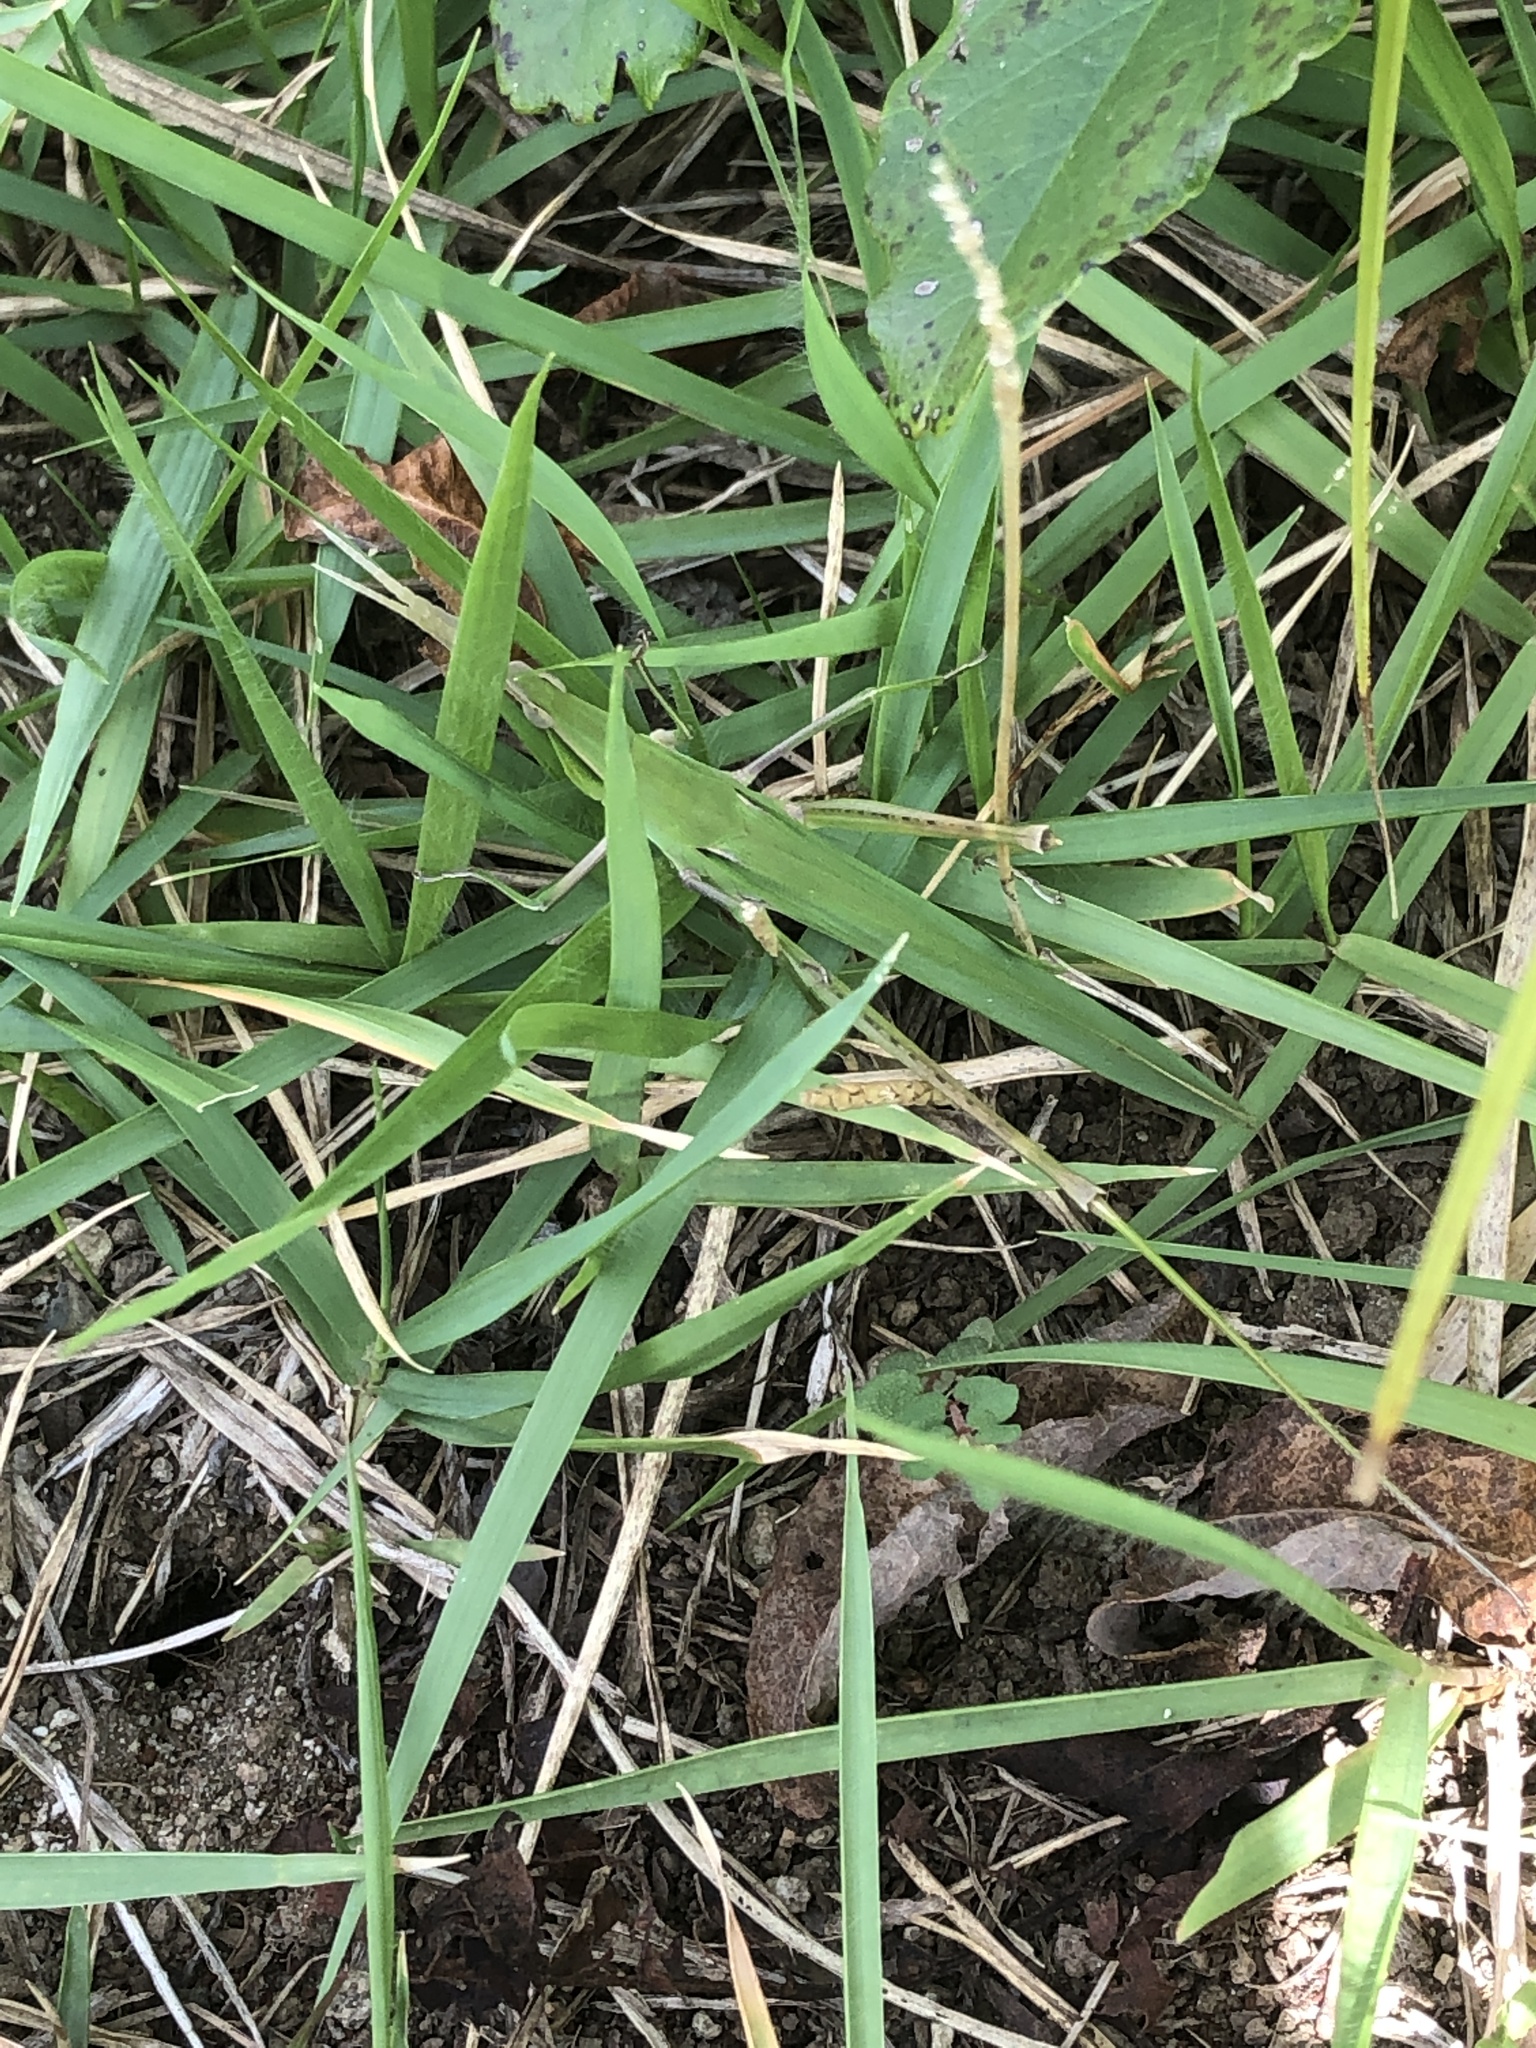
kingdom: Animalia
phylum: Arthropoda
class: Insecta
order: Orthoptera
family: Acrididae
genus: Acrida
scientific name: Acrida cinerea
